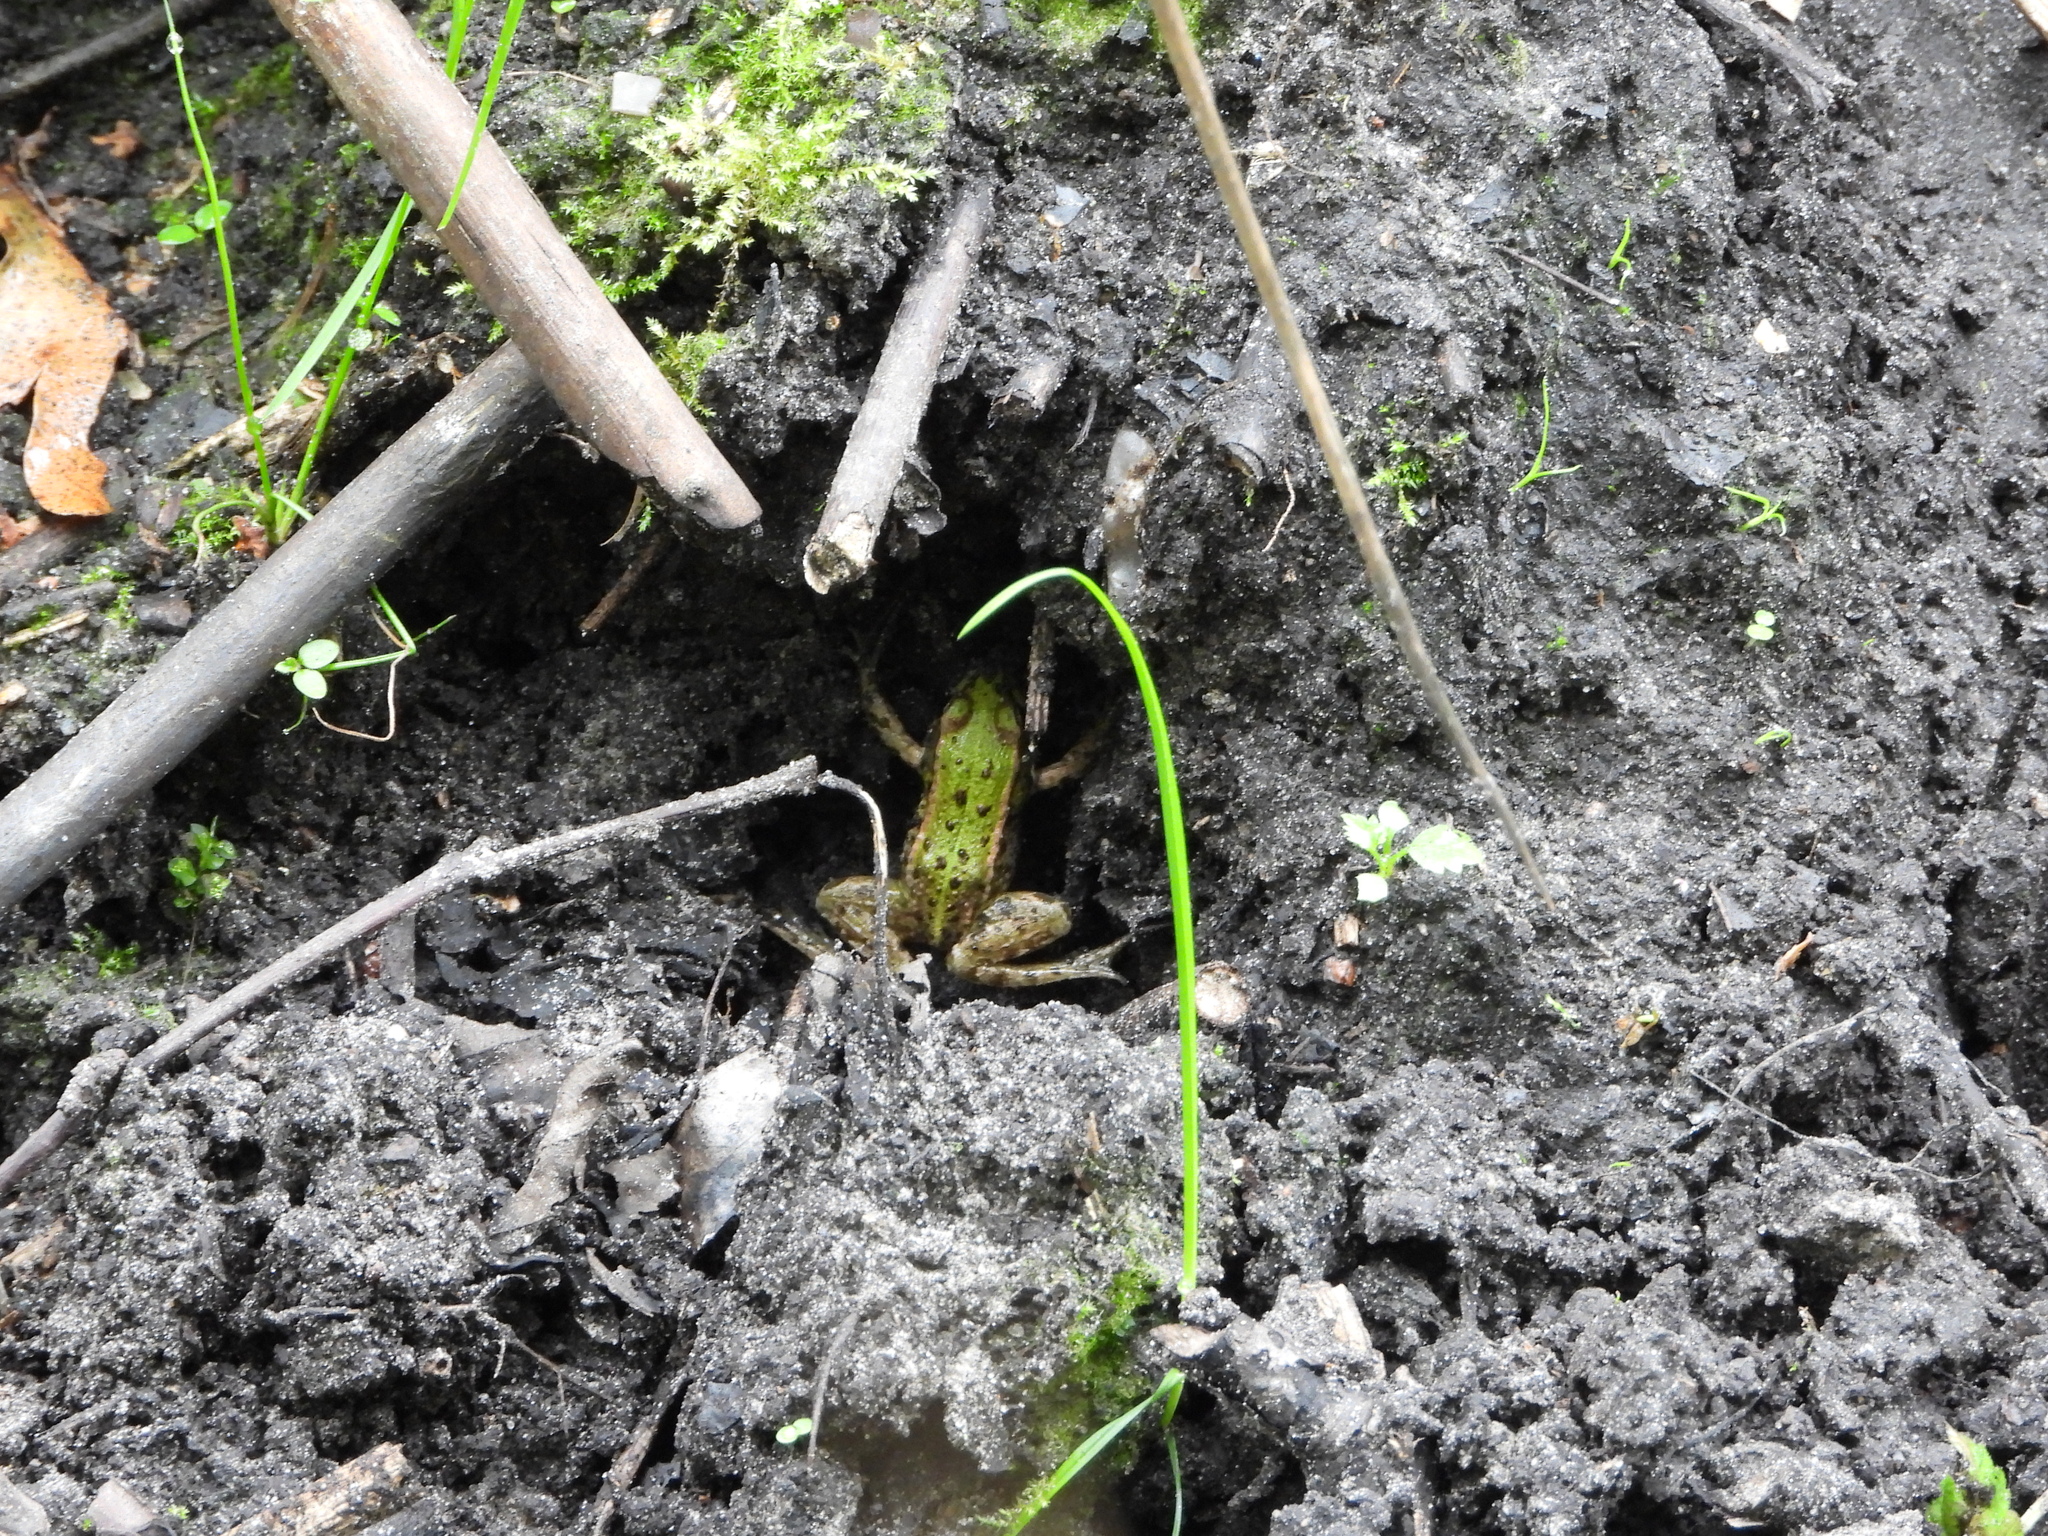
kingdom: Animalia
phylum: Chordata
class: Amphibia
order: Anura
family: Ranidae
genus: Pelophylax
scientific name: Pelophylax lessonae
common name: Pool frog
